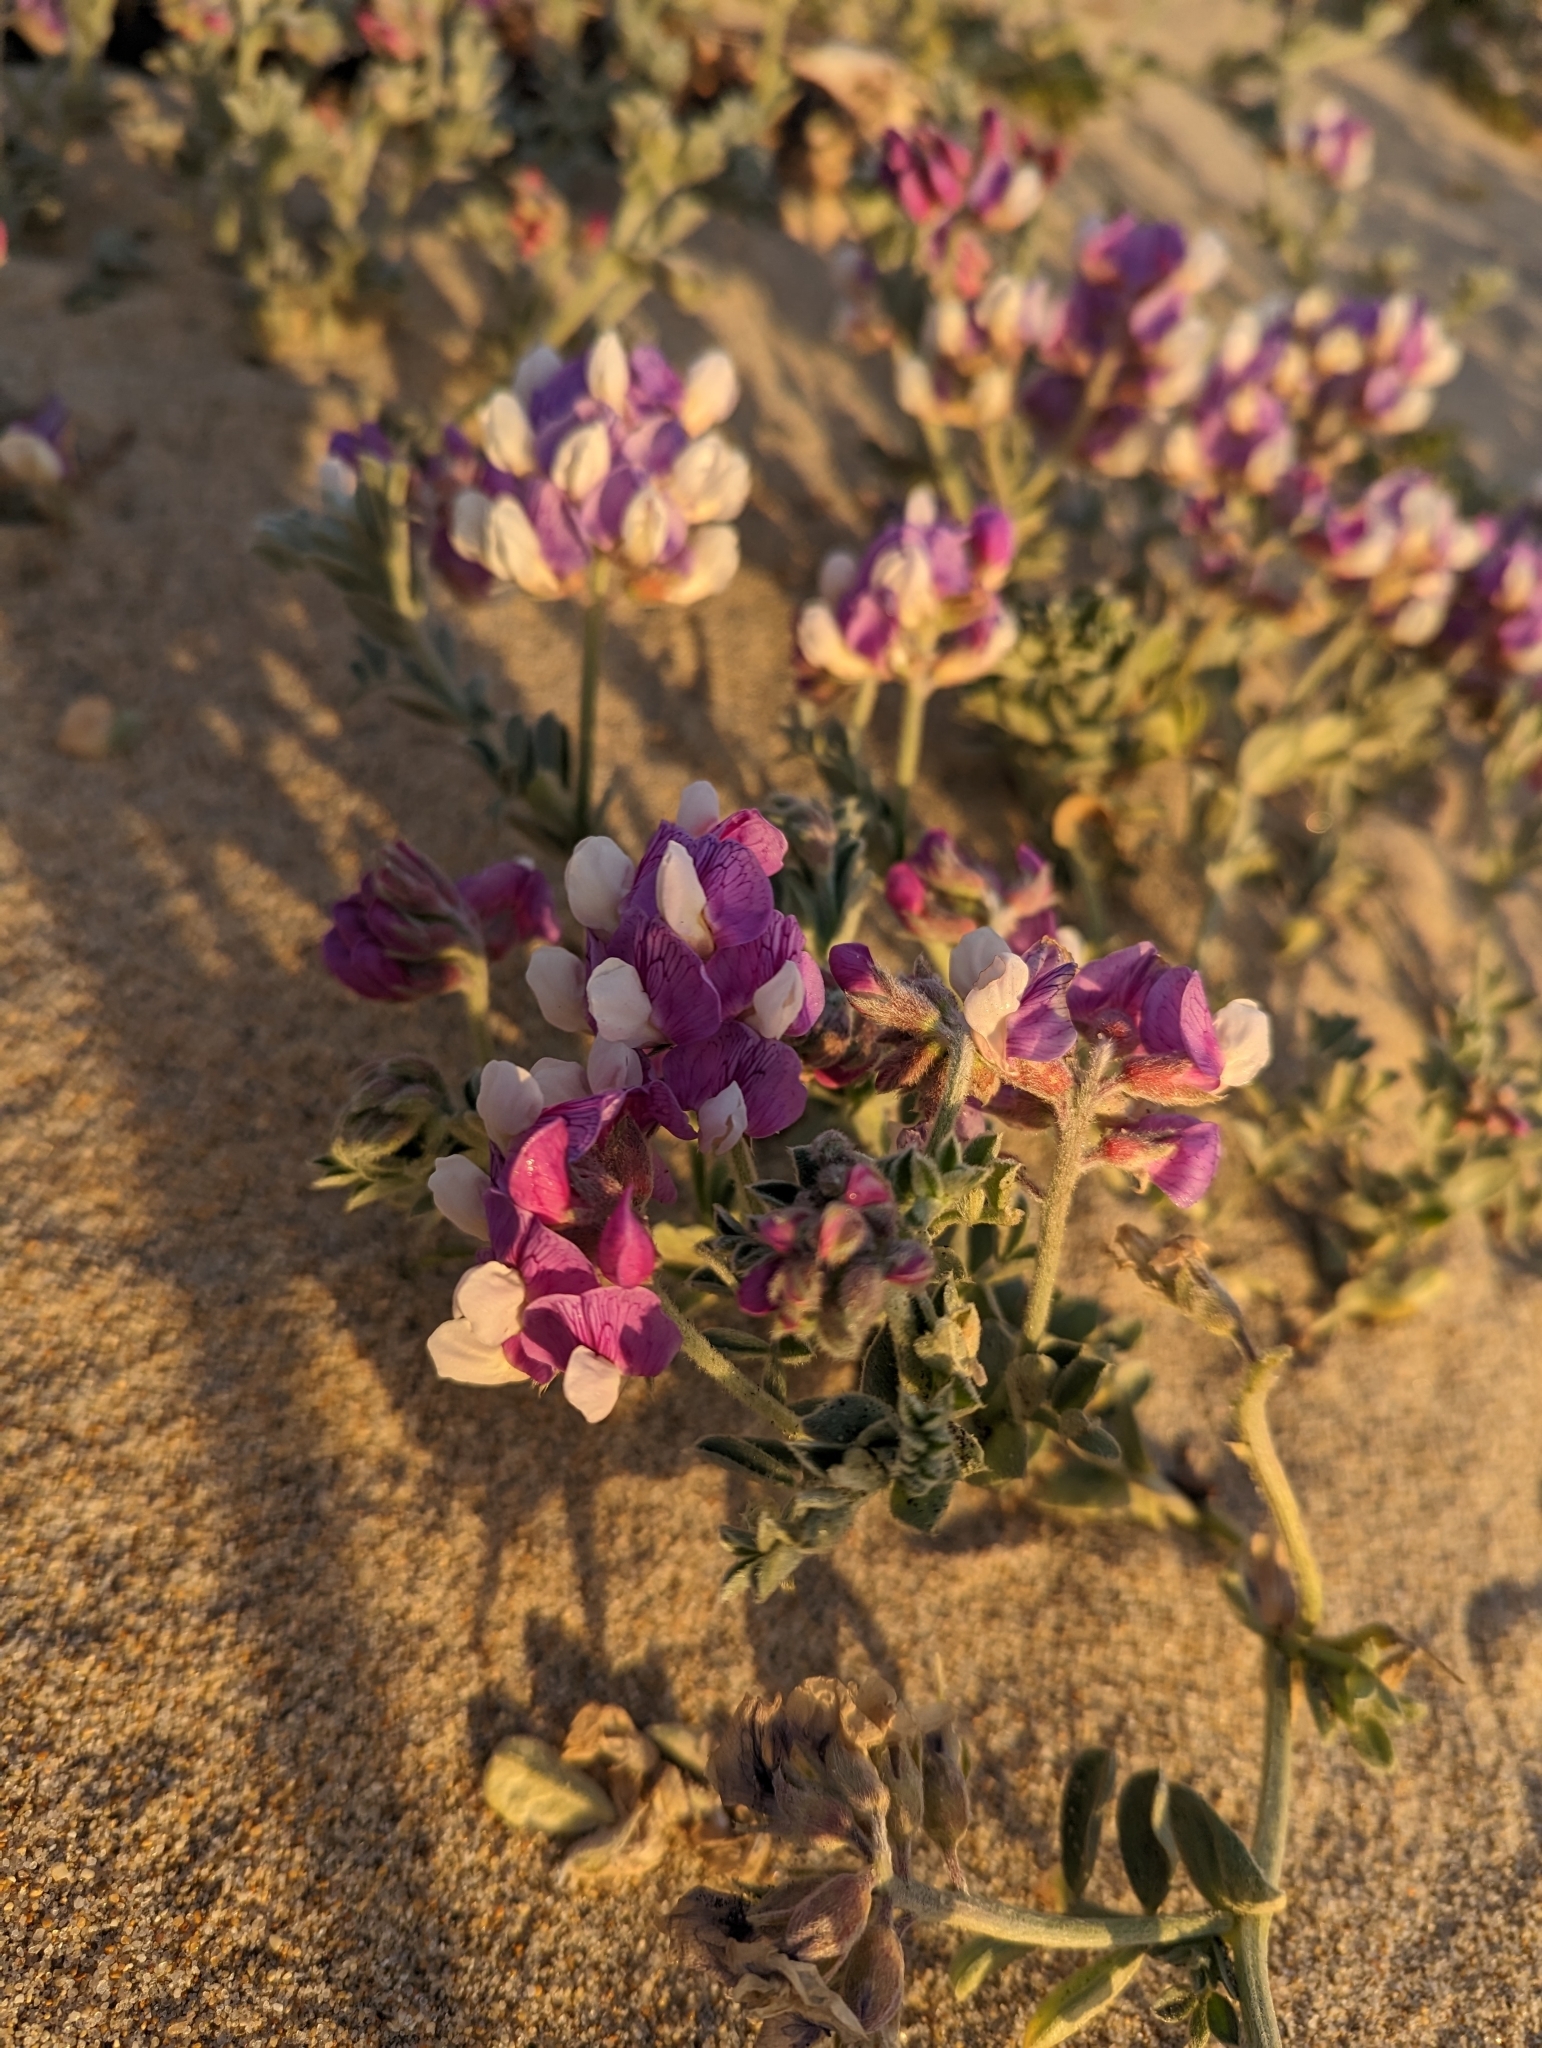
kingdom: Plantae
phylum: Tracheophyta
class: Magnoliopsida
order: Fabales
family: Fabaceae
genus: Lathyrus
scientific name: Lathyrus littoralis
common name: Dune sweet pea
